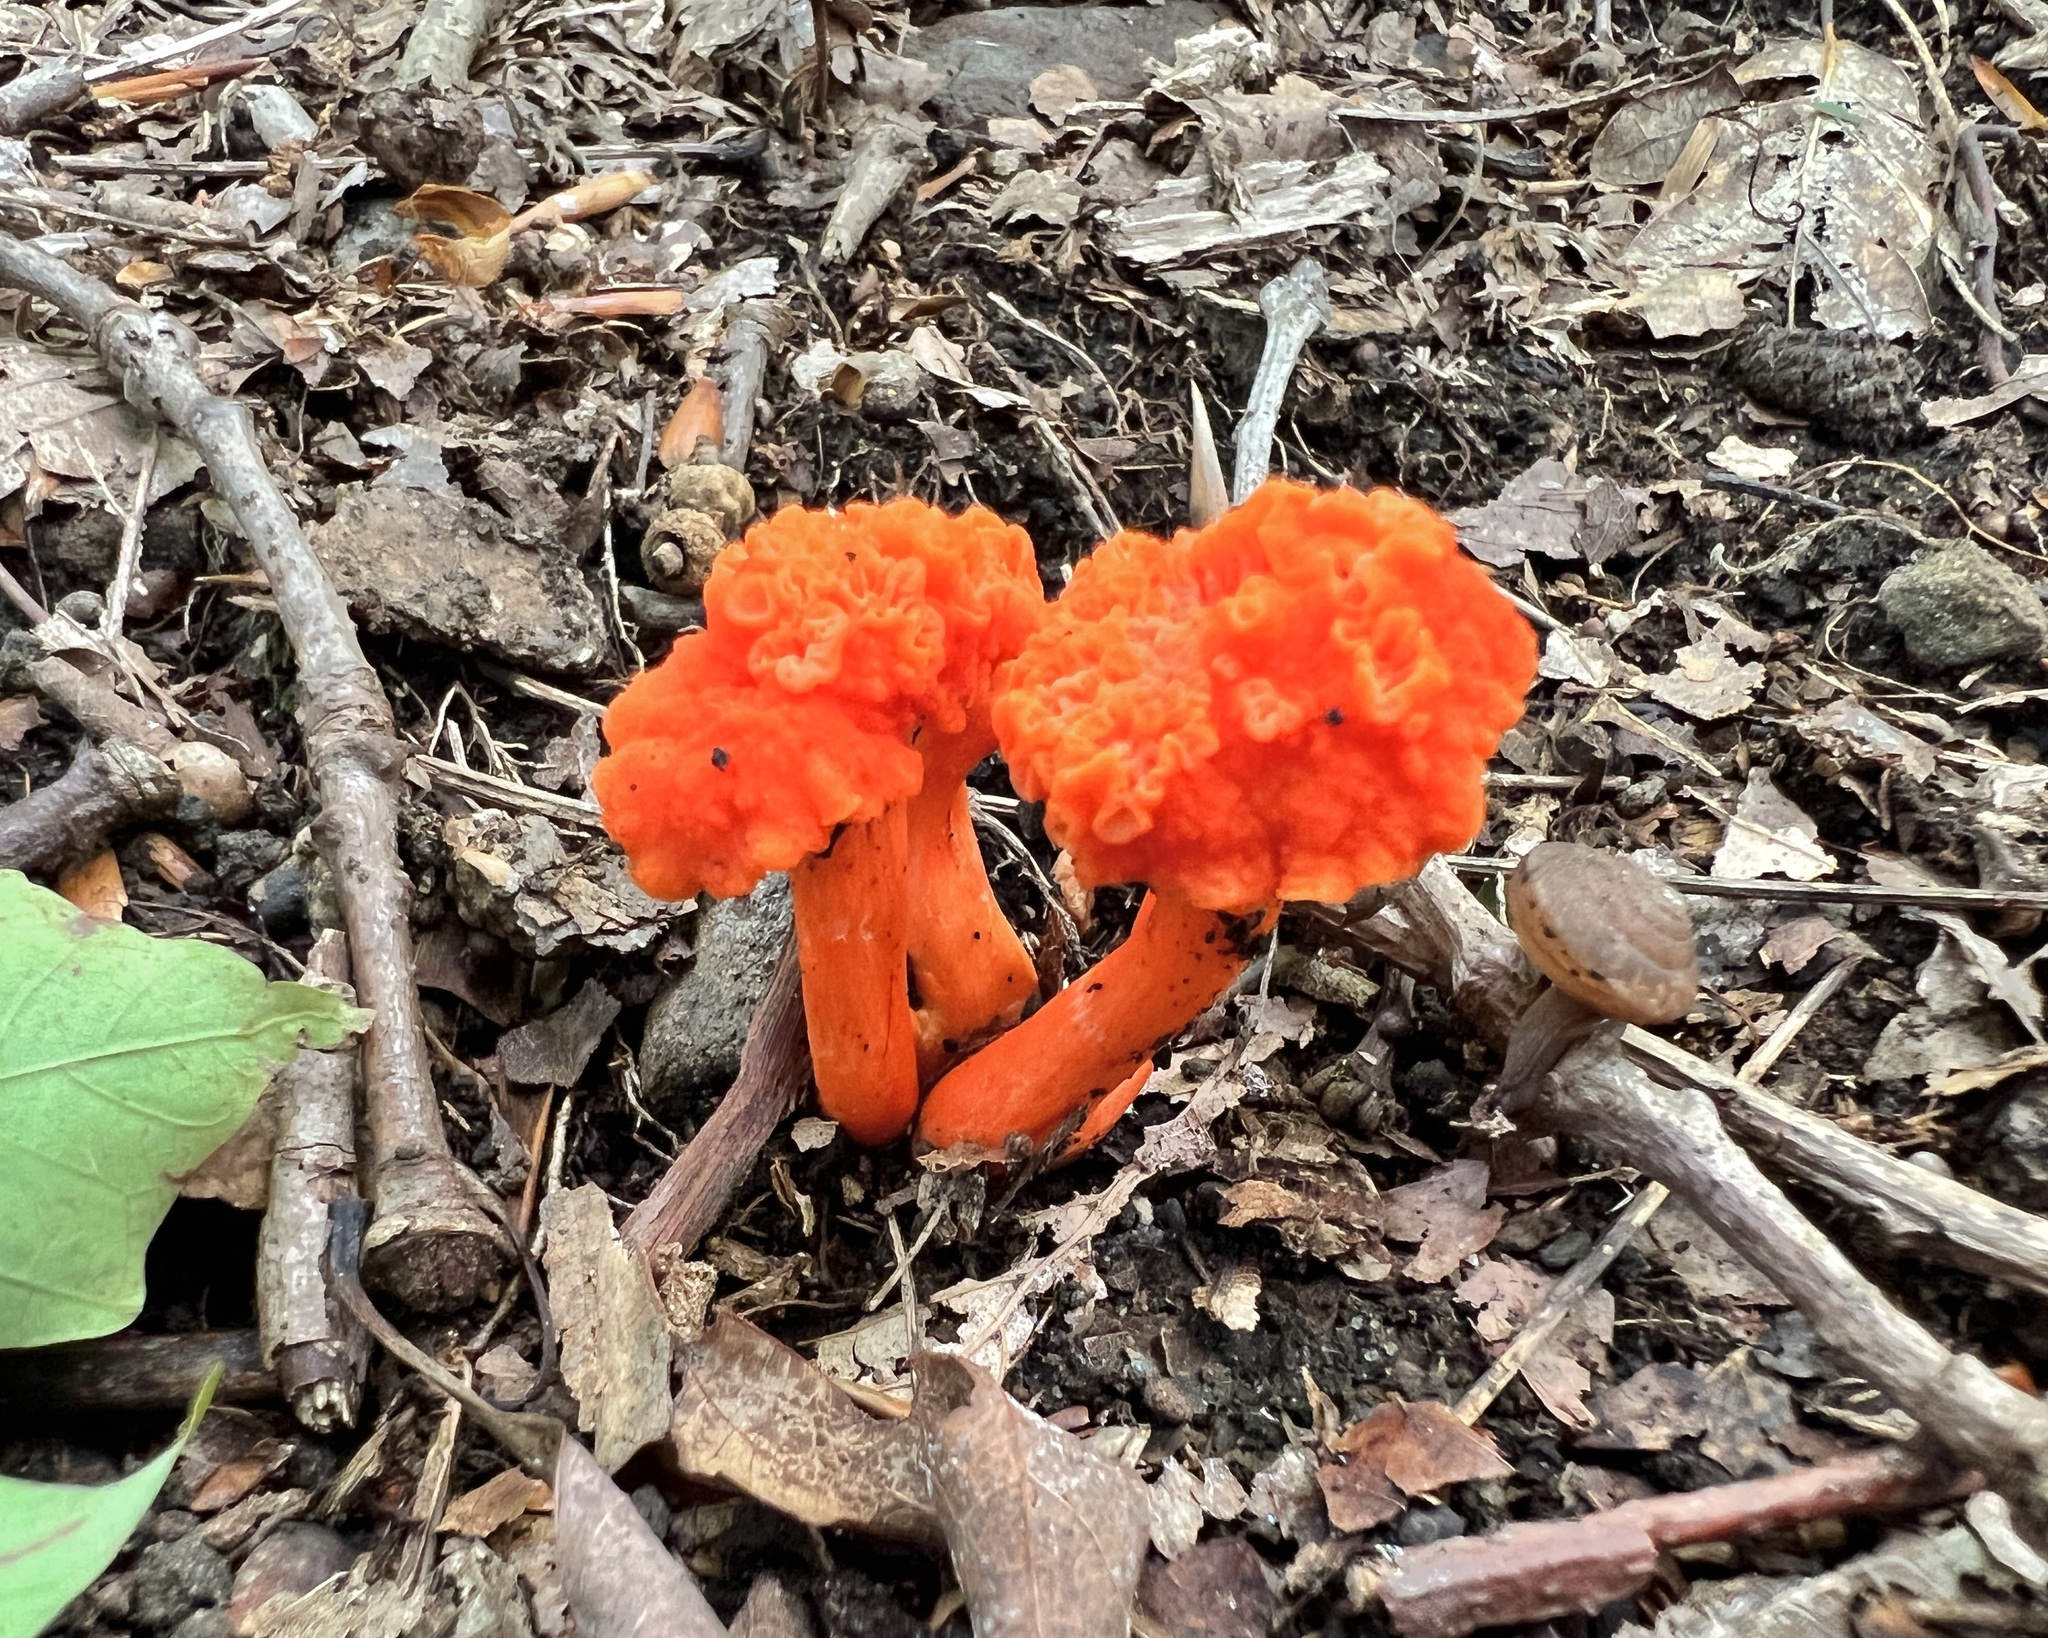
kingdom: Fungi
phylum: Basidiomycota
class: Agaricomycetes
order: Cantharellales
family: Hydnaceae
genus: Cantharellus
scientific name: Cantharellus cinnabarinus
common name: Cinnabar chanterelle
